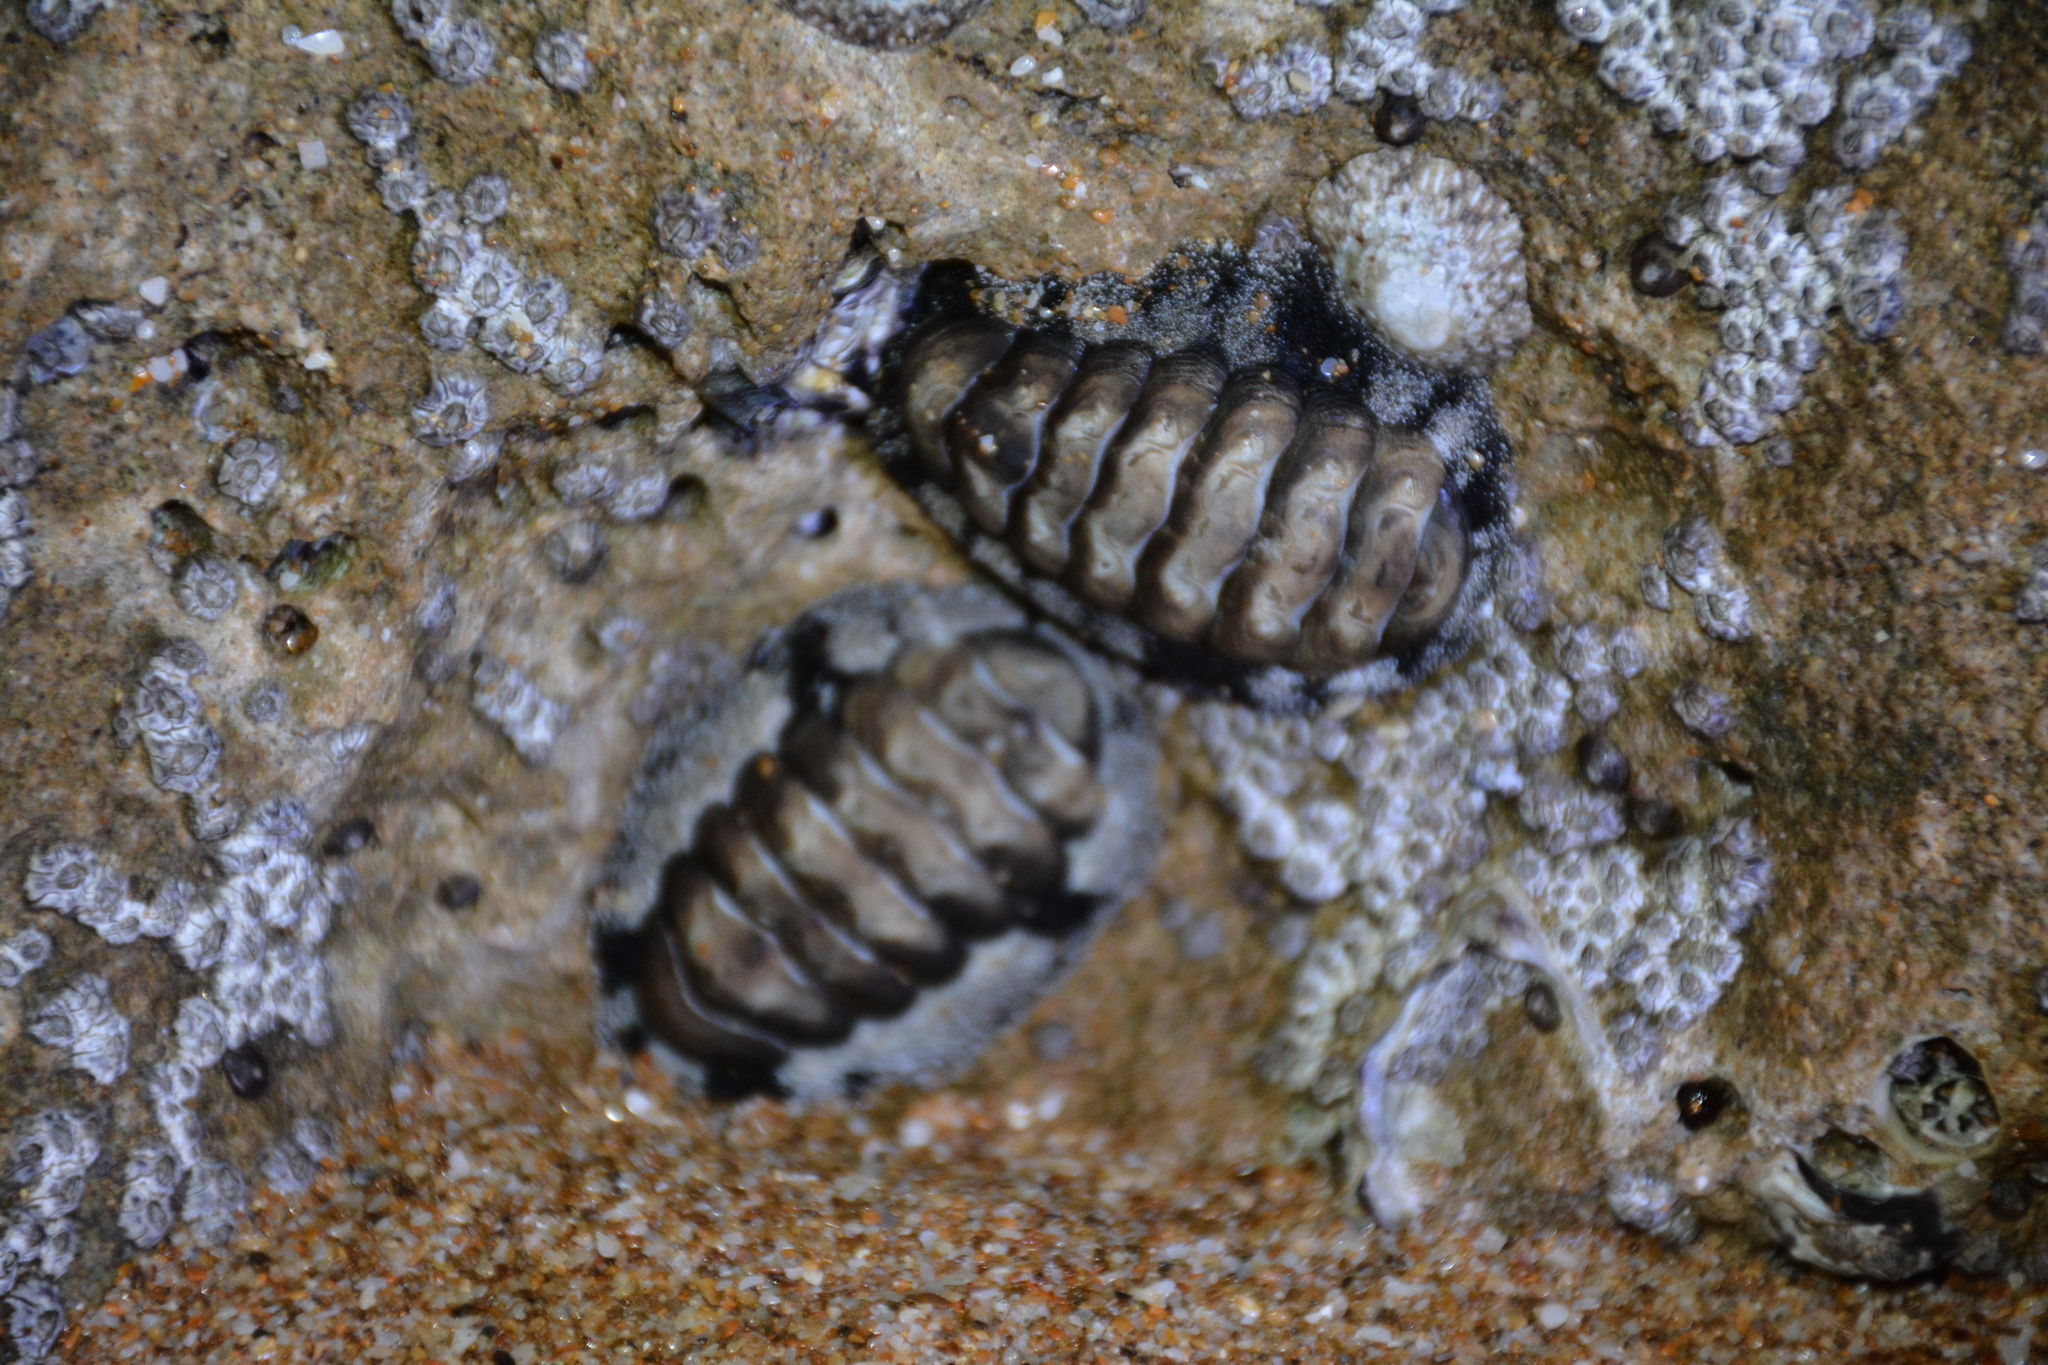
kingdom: Animalia
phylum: Mollusca
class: Polyplacophora
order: Chitonida
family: Chitonidae
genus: Acanthopleura
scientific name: Acanthopleura vaillantii
